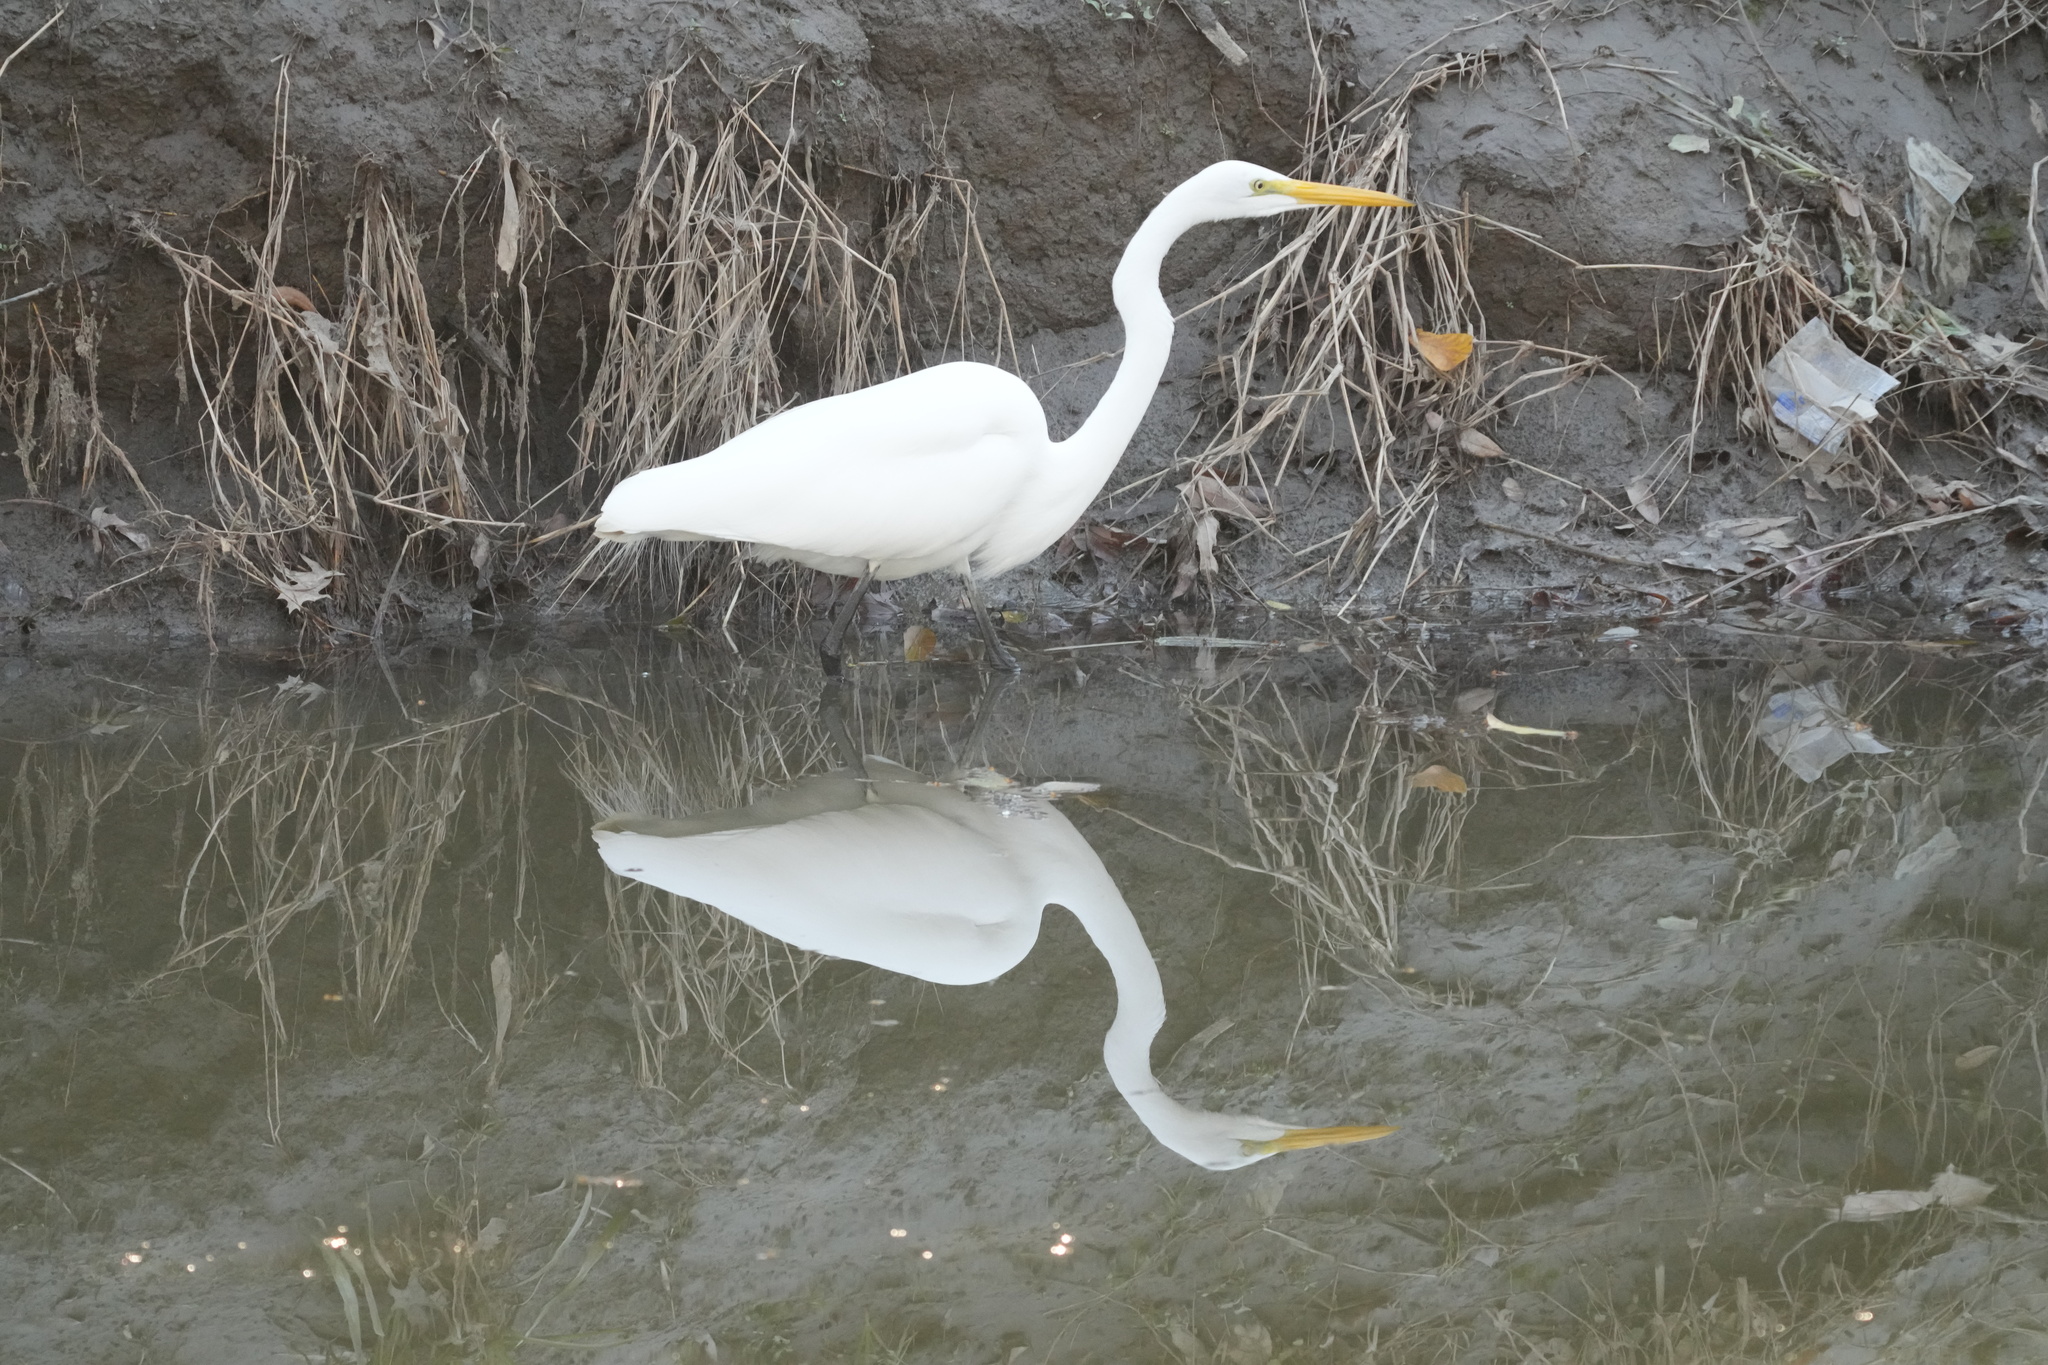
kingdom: Animalia
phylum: Chordata
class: Aves
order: Pelecaniformes
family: Ardeidae
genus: Ardea
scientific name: Ardea alba
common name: Great egret
